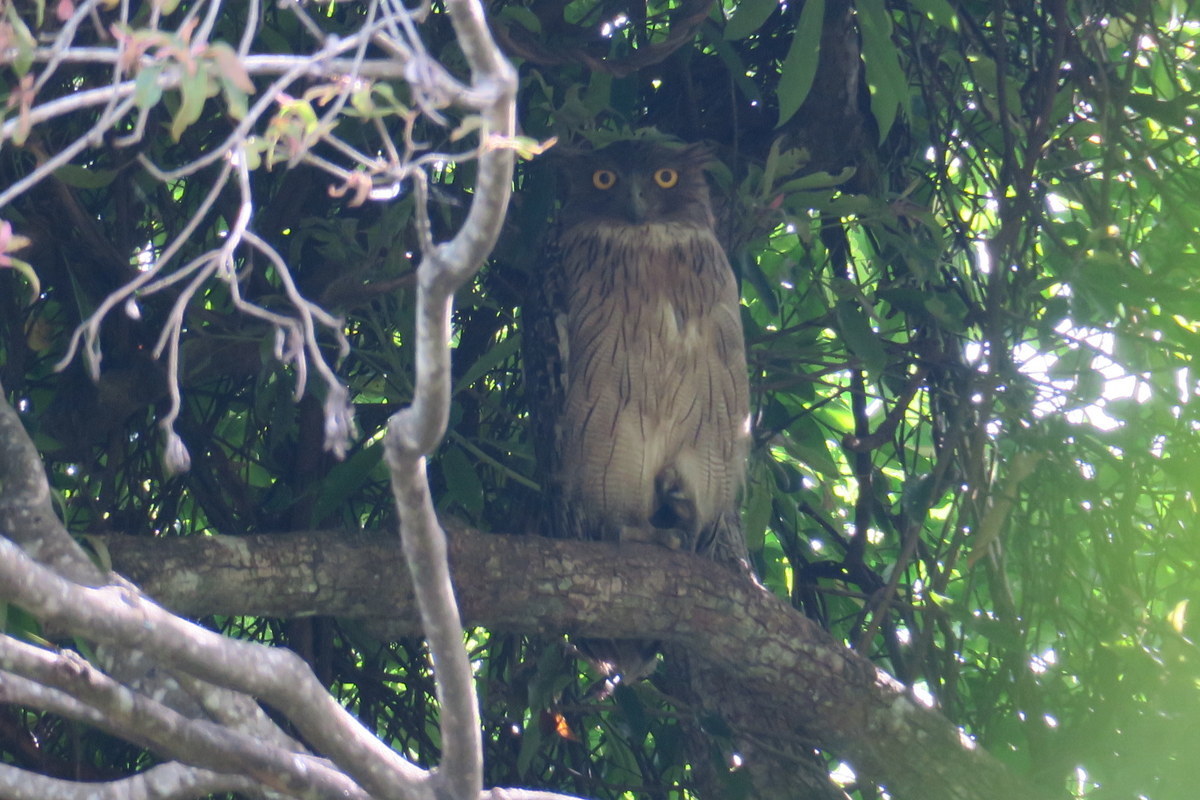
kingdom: Animalia
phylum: Chordata
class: Aves
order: Strigiformes
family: Strigidae
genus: Ketupa
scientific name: Ketupa zeylonensis
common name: Brown fish owl
